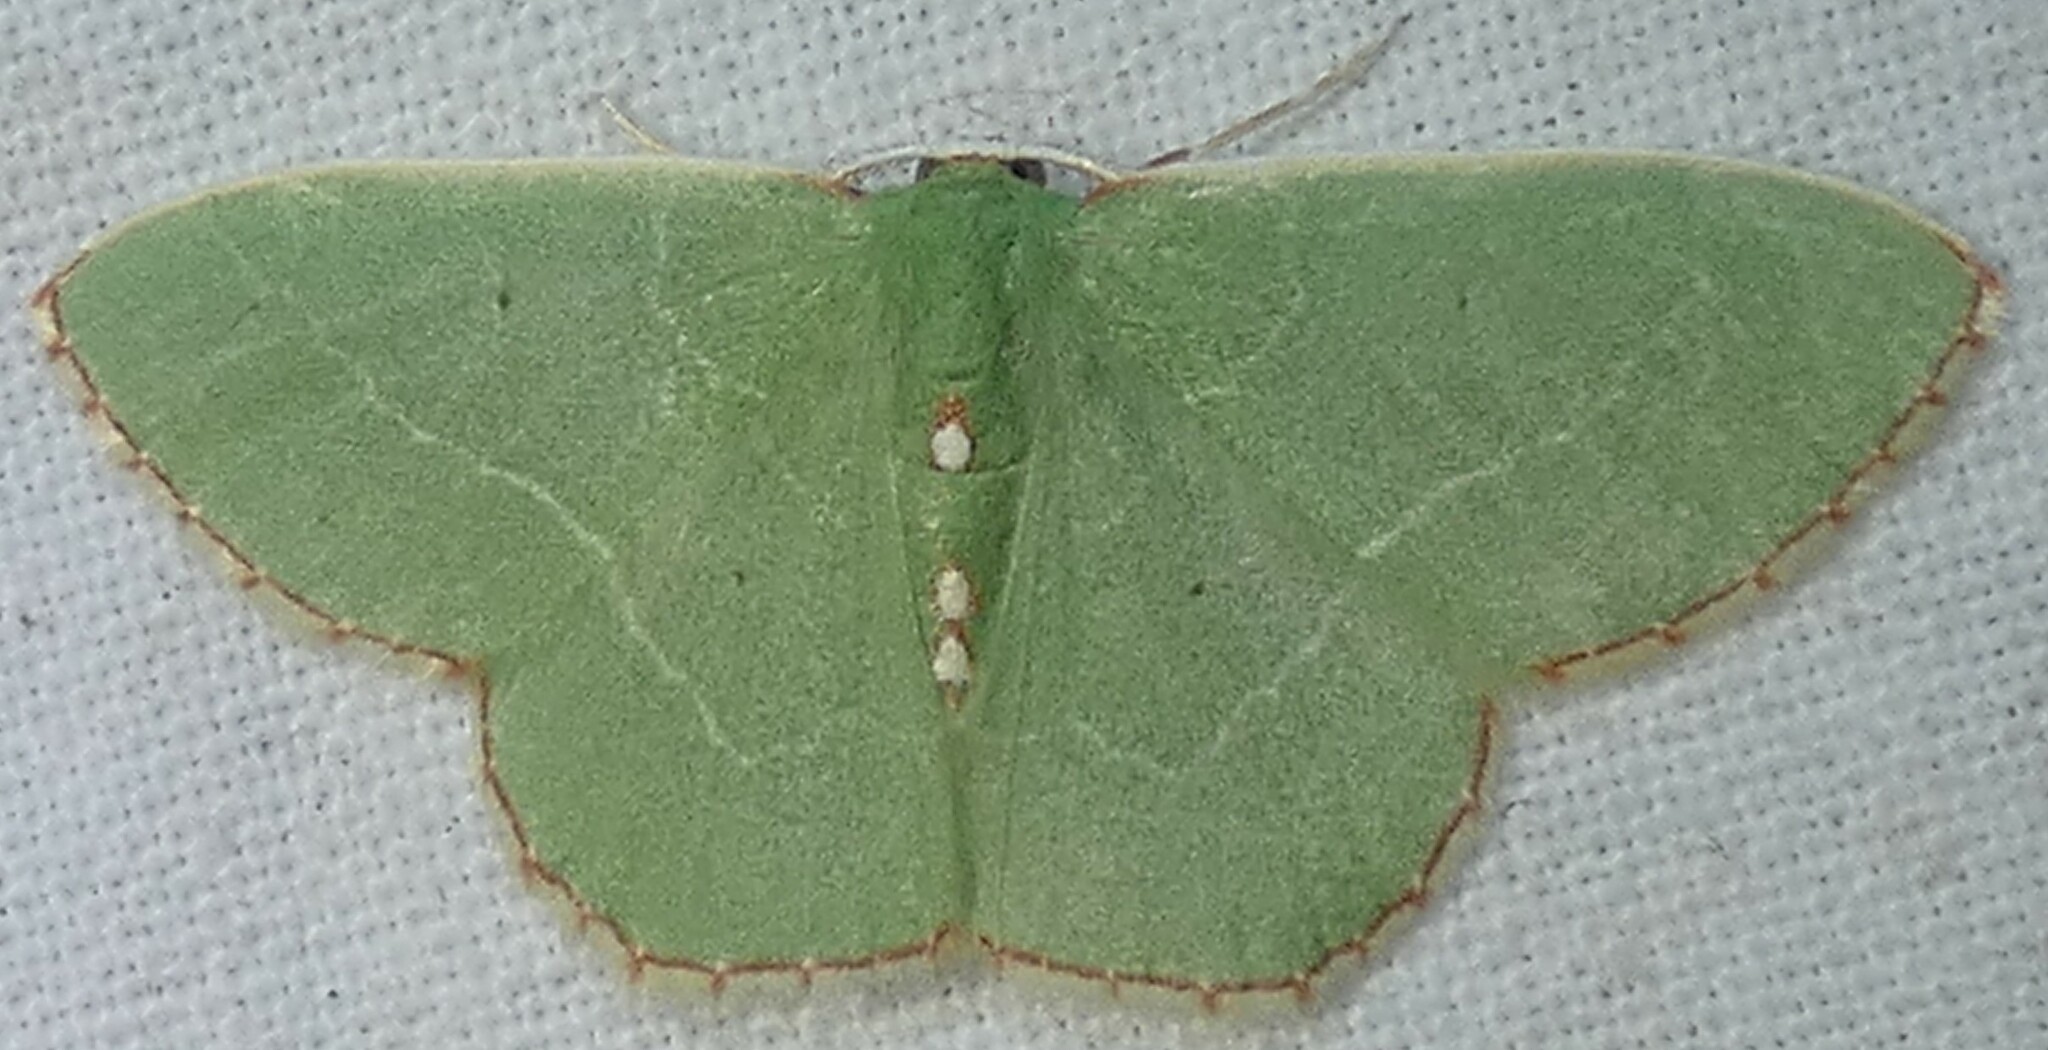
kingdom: Animalia
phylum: Arthropoda
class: Insecta
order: Lepidoptera
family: Geometridae
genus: Nemoria
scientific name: Nemoria lixaria
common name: Red-bordered emerald
